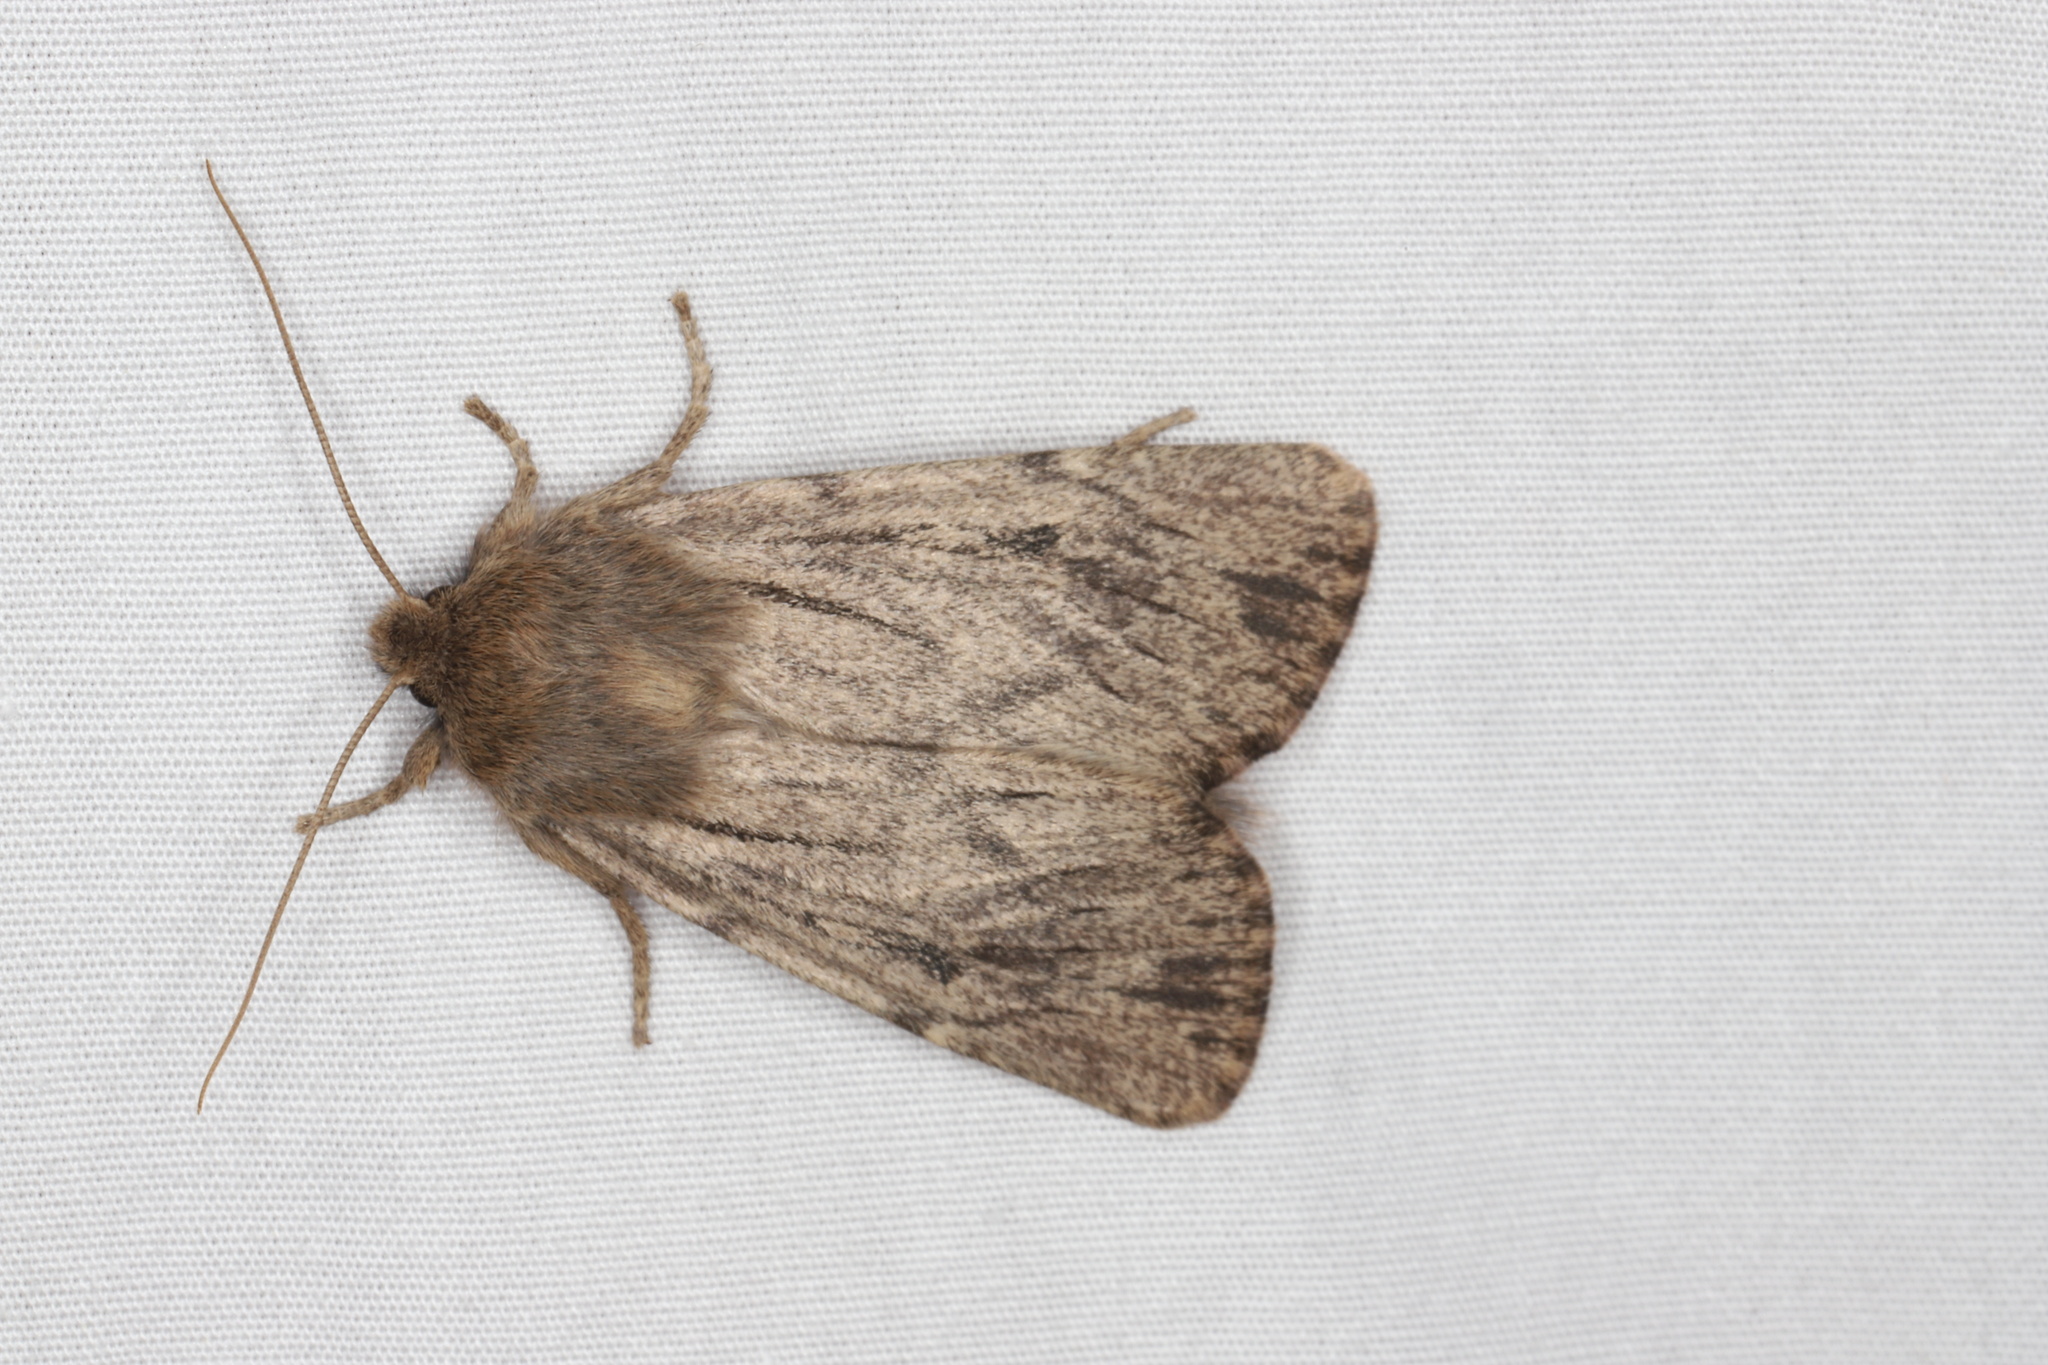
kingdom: Animalia
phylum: Arthropoda
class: Insecta
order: Lepidoptera
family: Noctuidae
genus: Ufeus
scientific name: Ufeus satyricus
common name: Brown satyr moth
